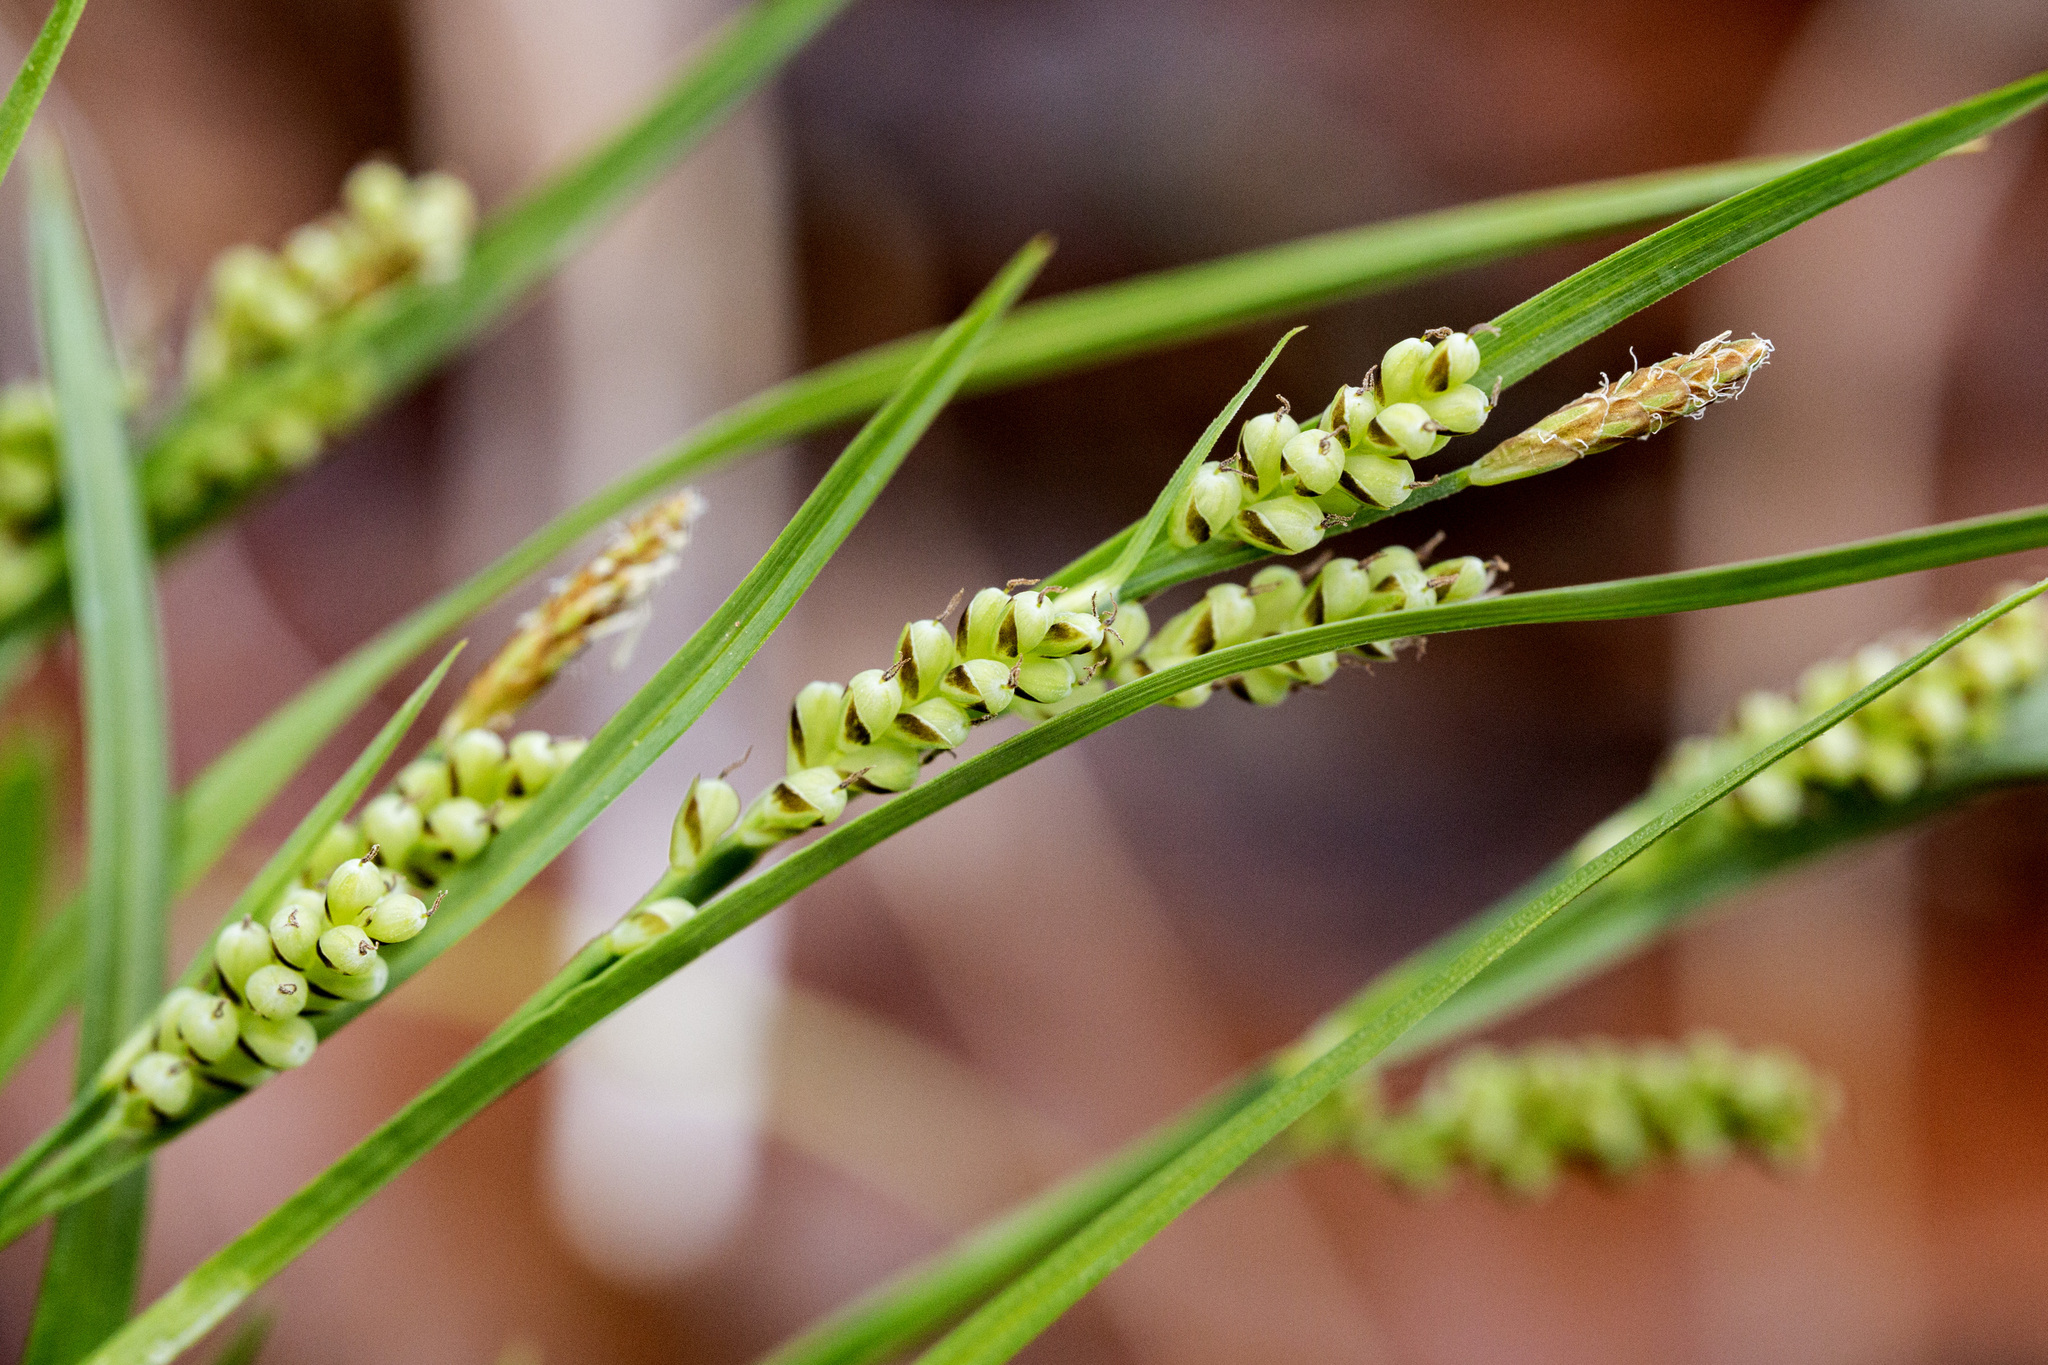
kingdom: Plantae
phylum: Tracheophyta
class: Liliopsida
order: Poales
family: Cyperaceae
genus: Carex
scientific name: Carex aurea
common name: Golden sedge
